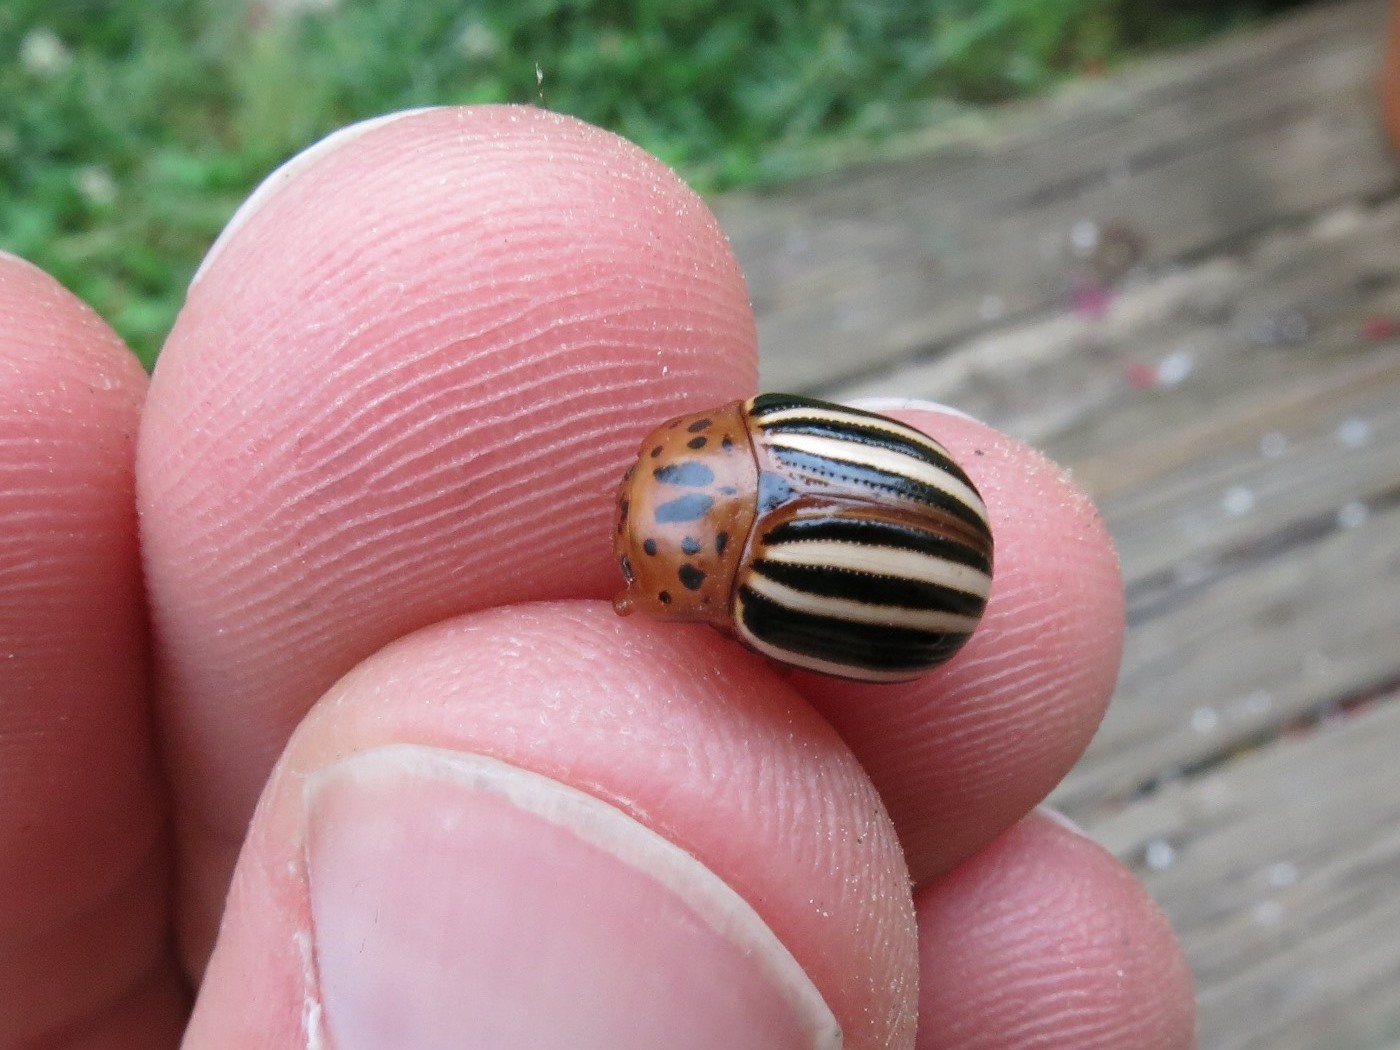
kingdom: Animalia
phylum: Arthropoda
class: Insecta
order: Coleoptera
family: Chrysomelidae
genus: Leptinotarsa
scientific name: Leptinotarsa juncta
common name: False potato beetle
